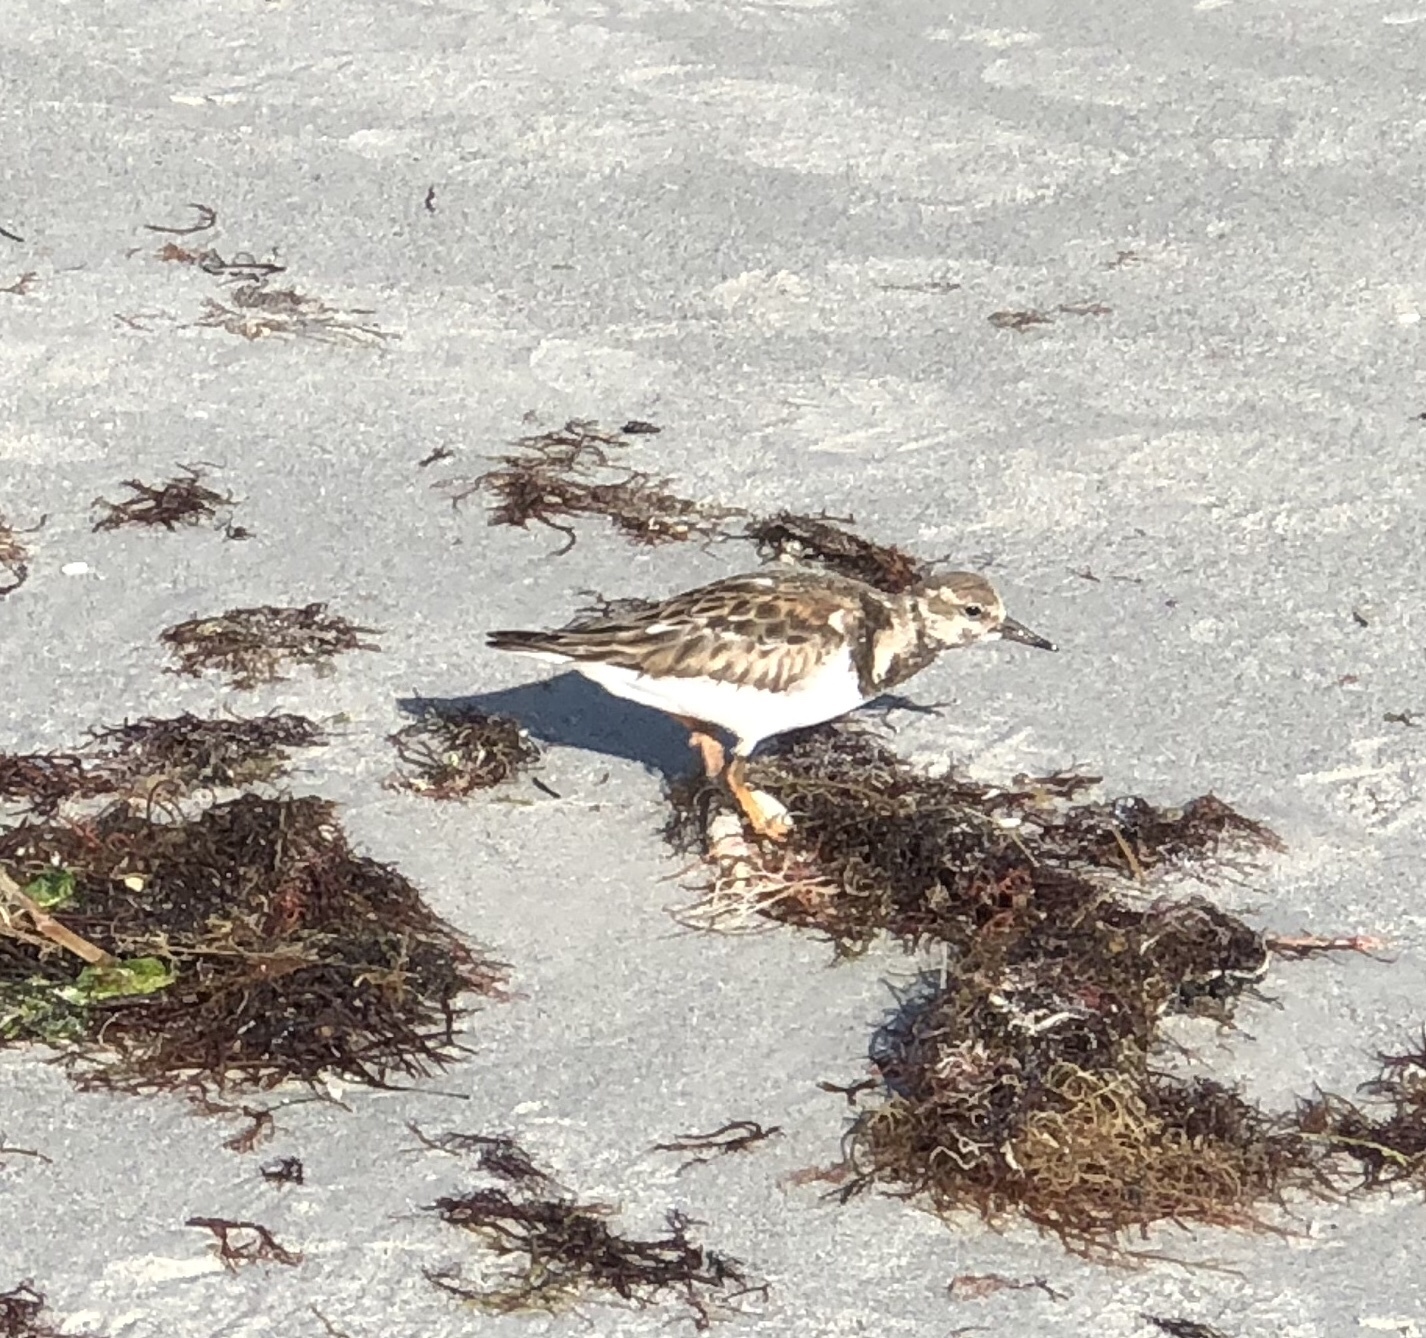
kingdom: Animalia
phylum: Chordata
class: Aves
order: Charadriiformes
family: Scolopacidae
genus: Arenaria
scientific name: Arenaria interpres
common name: Ruddy turnstone
